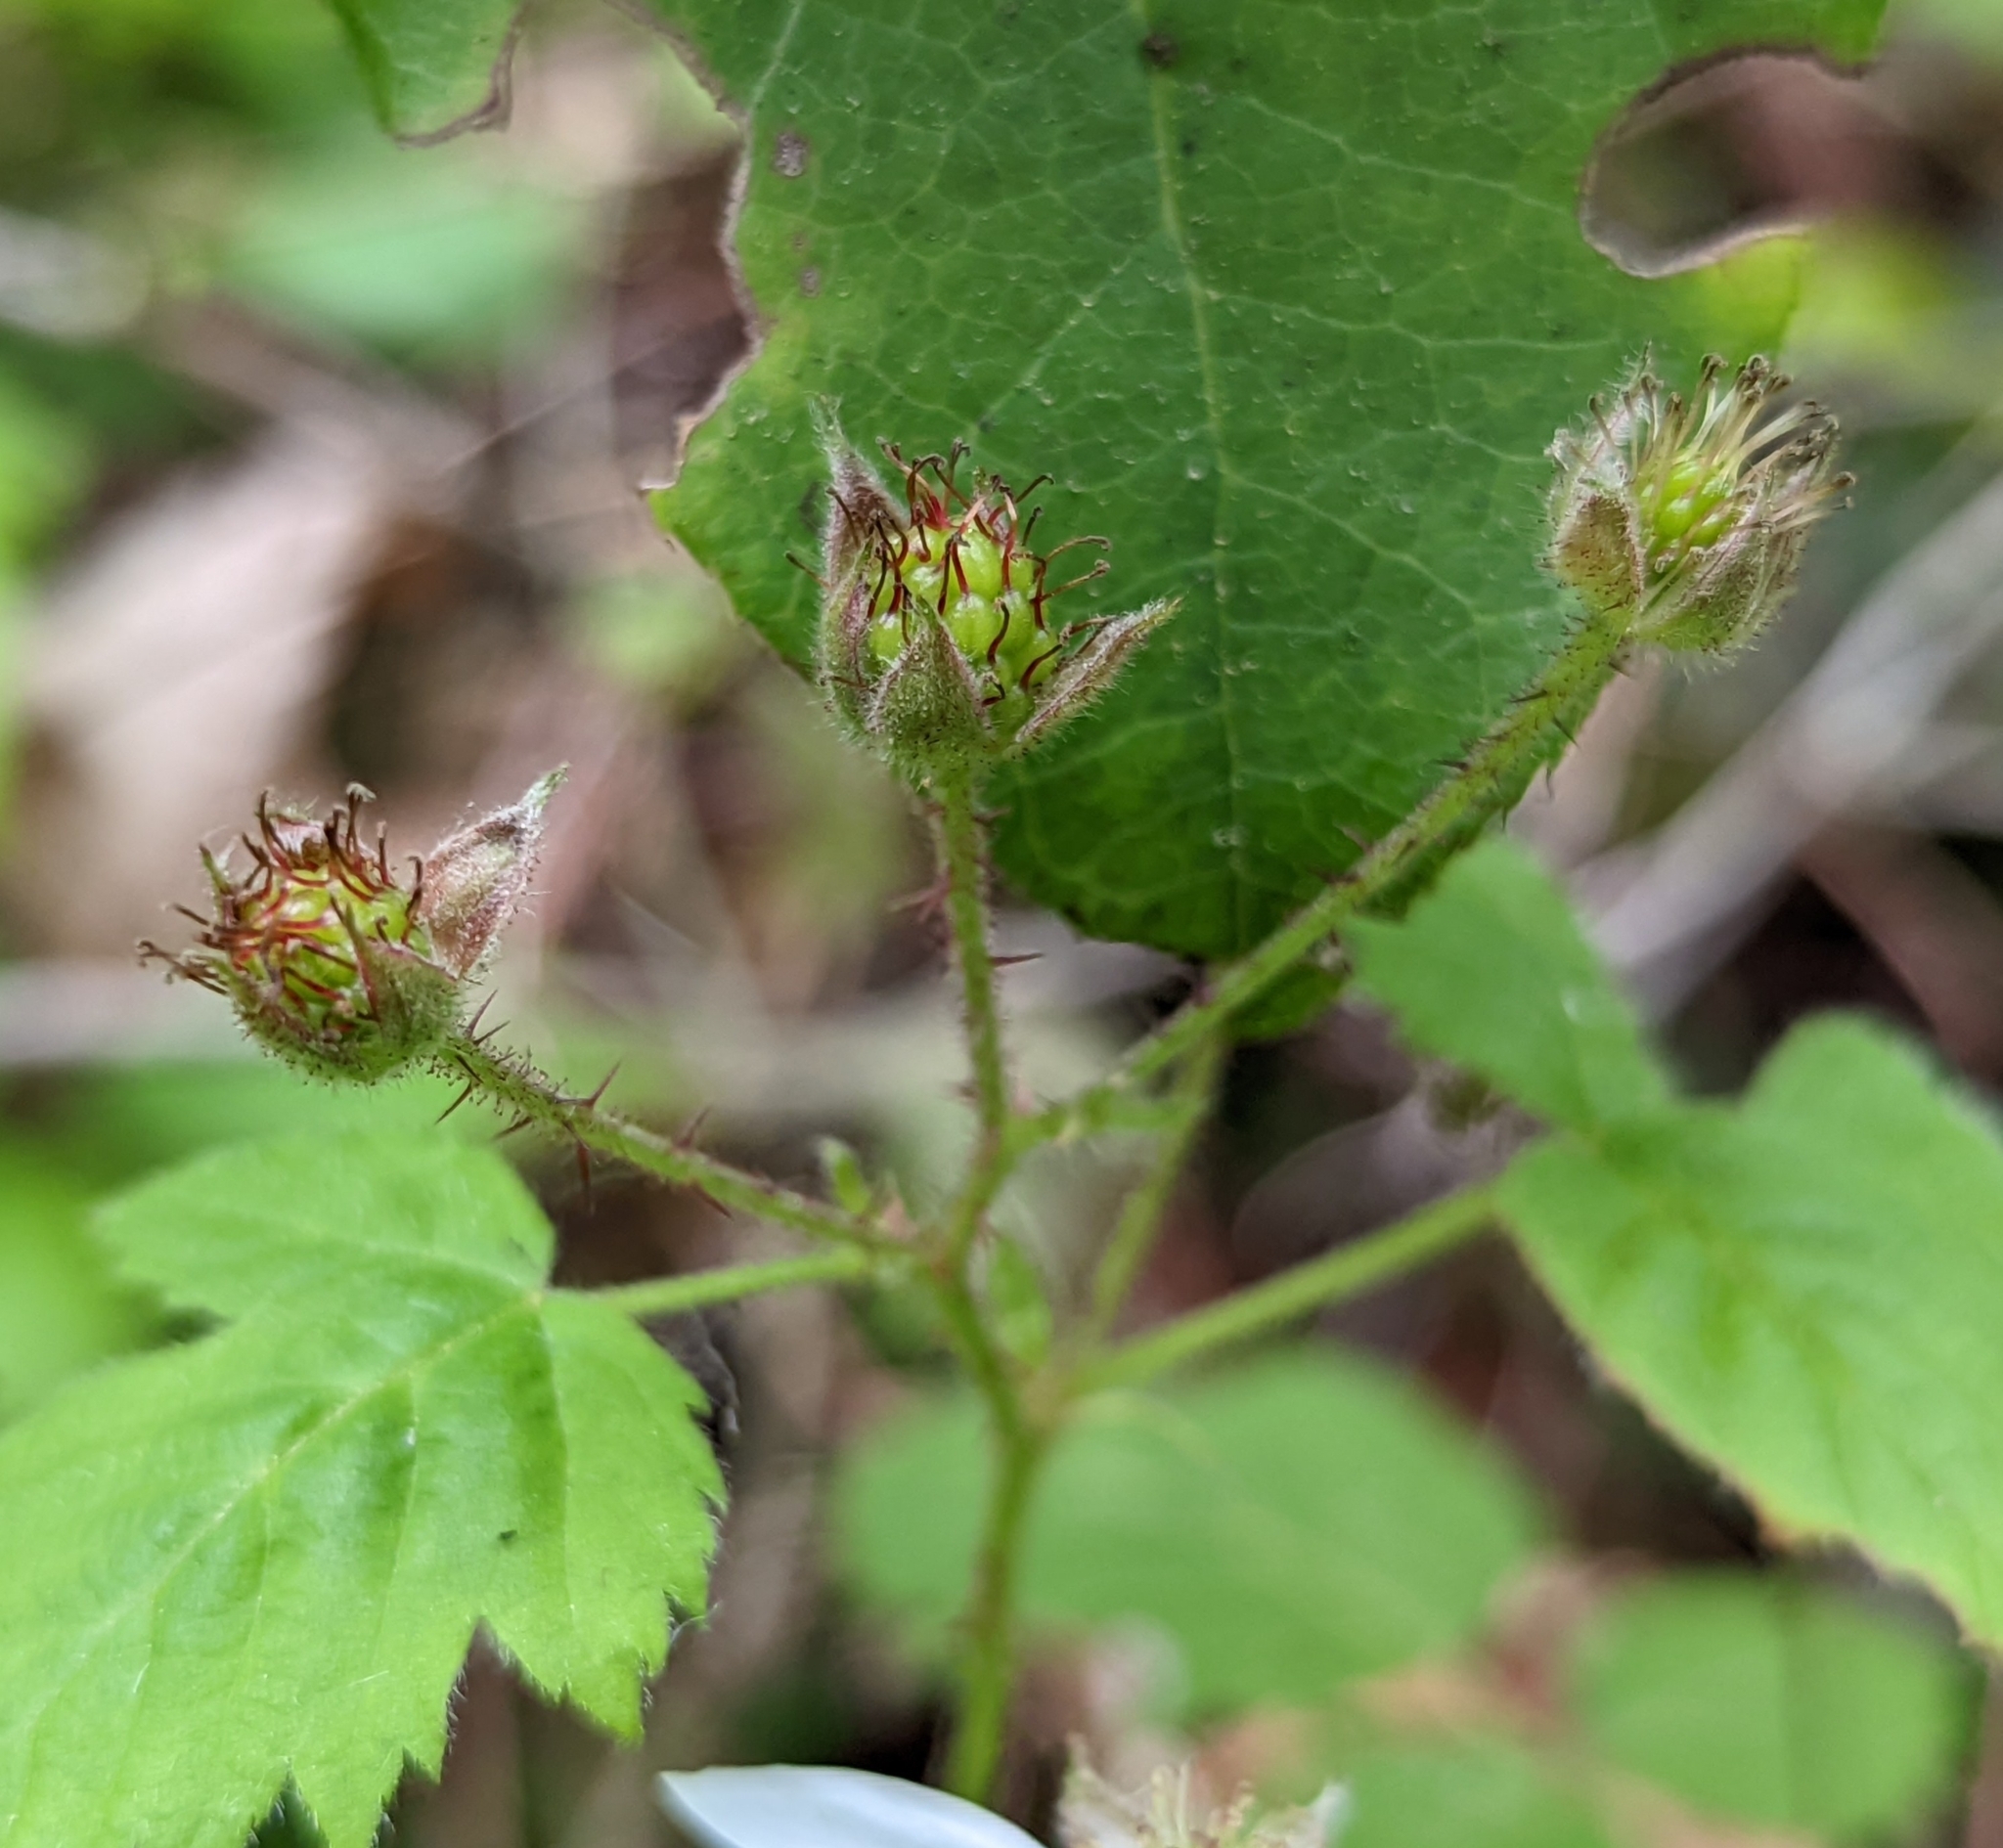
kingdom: Plantae
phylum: Tracheophyta
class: Magnoliopsida
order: Rosales
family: Rosaceae
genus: Rubus
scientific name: Rubus ursinus
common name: Pacific blackberry
